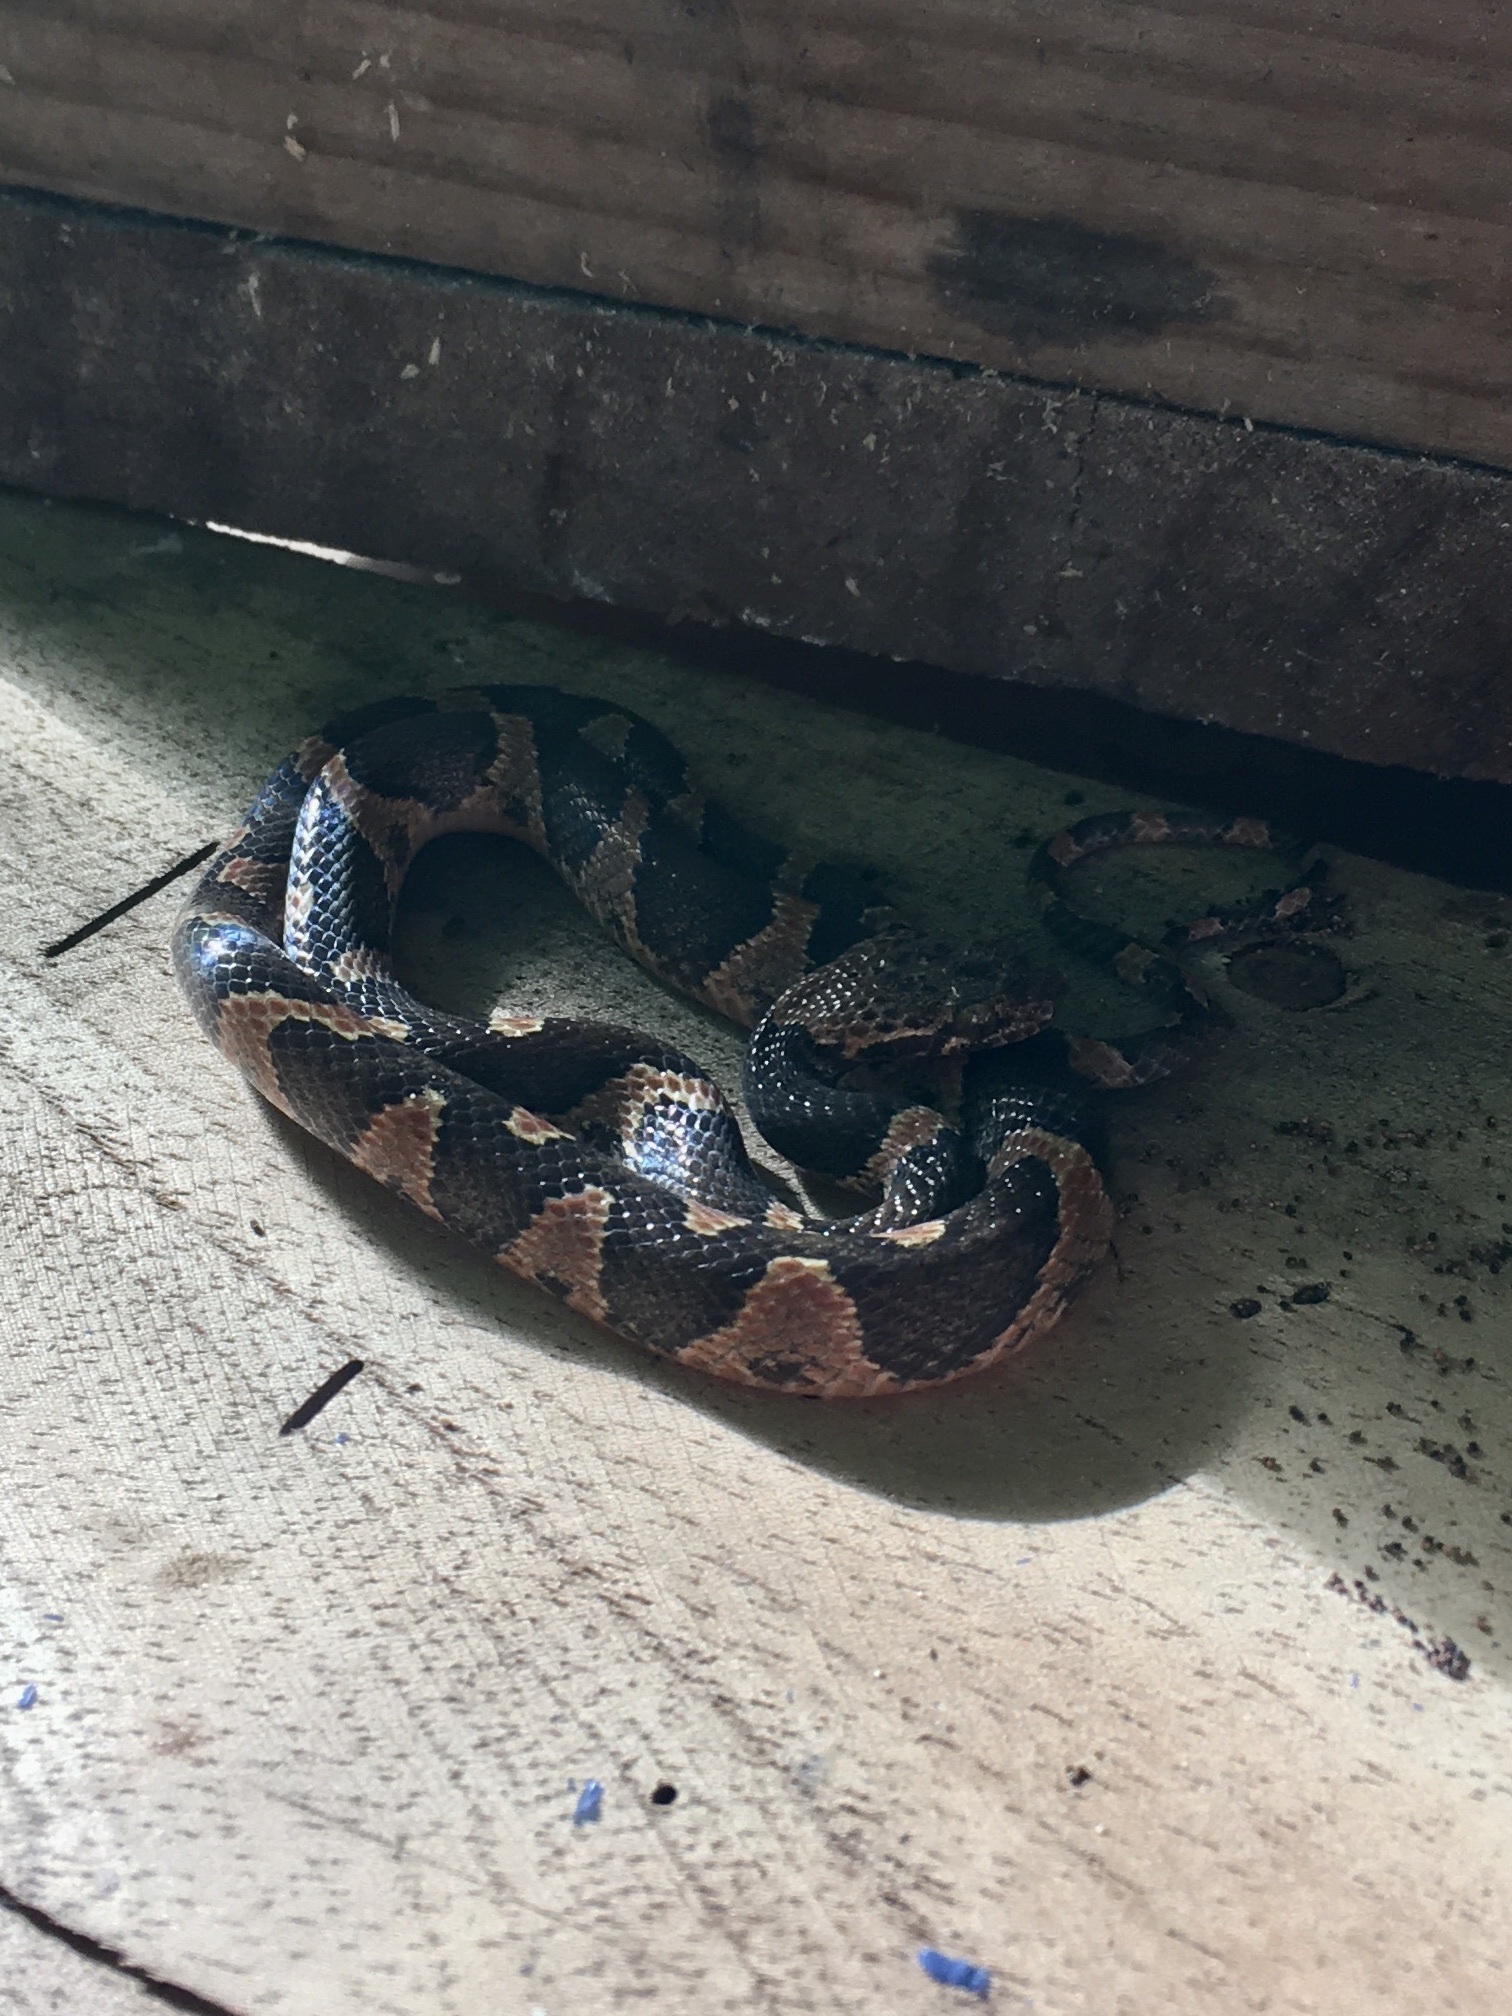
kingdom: Animalia
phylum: Chordata
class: Squamata
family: Colubridae
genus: Leptodeira
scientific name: Leptodeira frenata
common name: Rainforest cat-eyed snake
